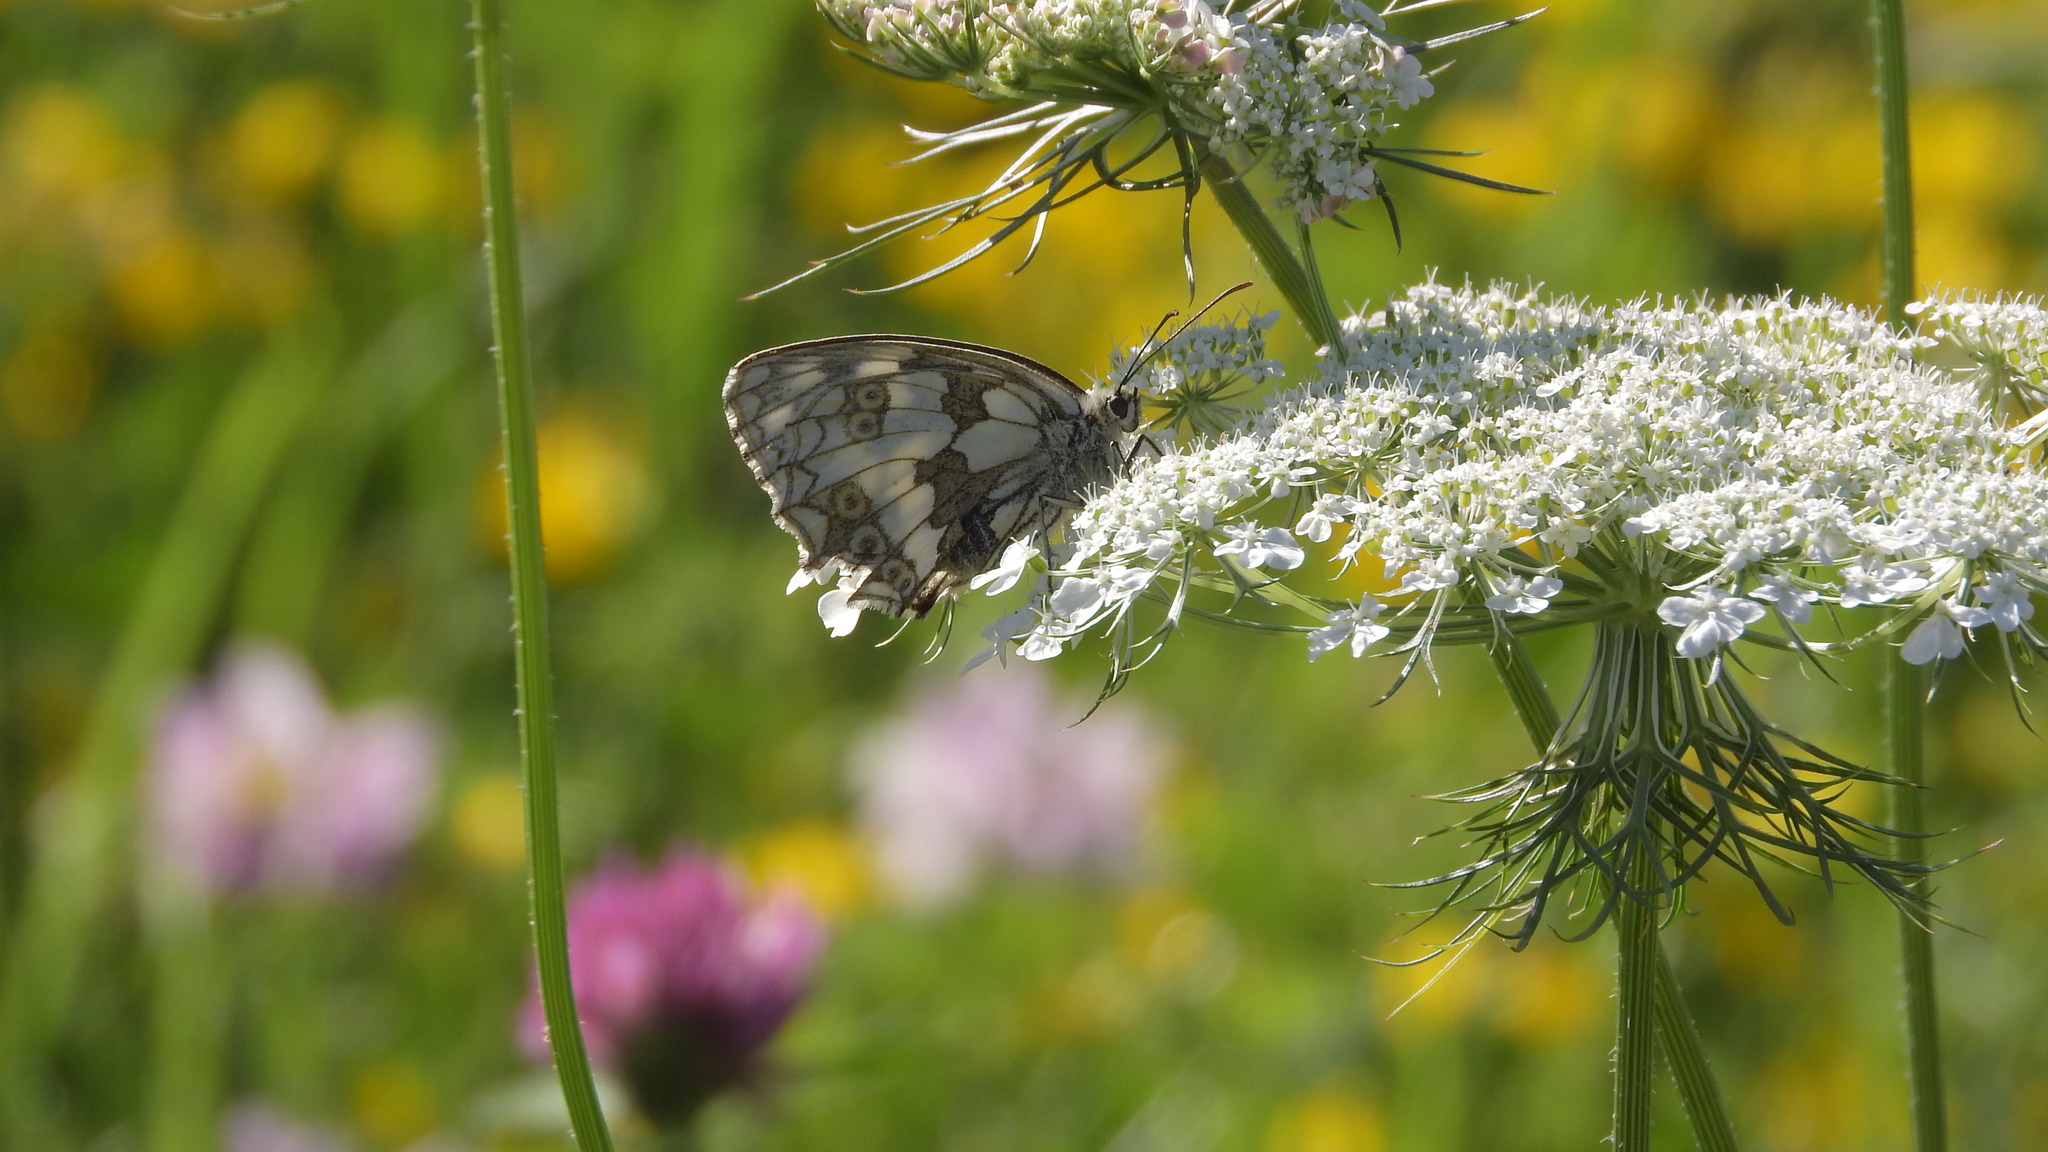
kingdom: Animalia
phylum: Arthropoda
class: Insecta
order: Lepidoptera
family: Nymphalidae
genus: Melanargia
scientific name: Melanargia galathea
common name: Marbled white
